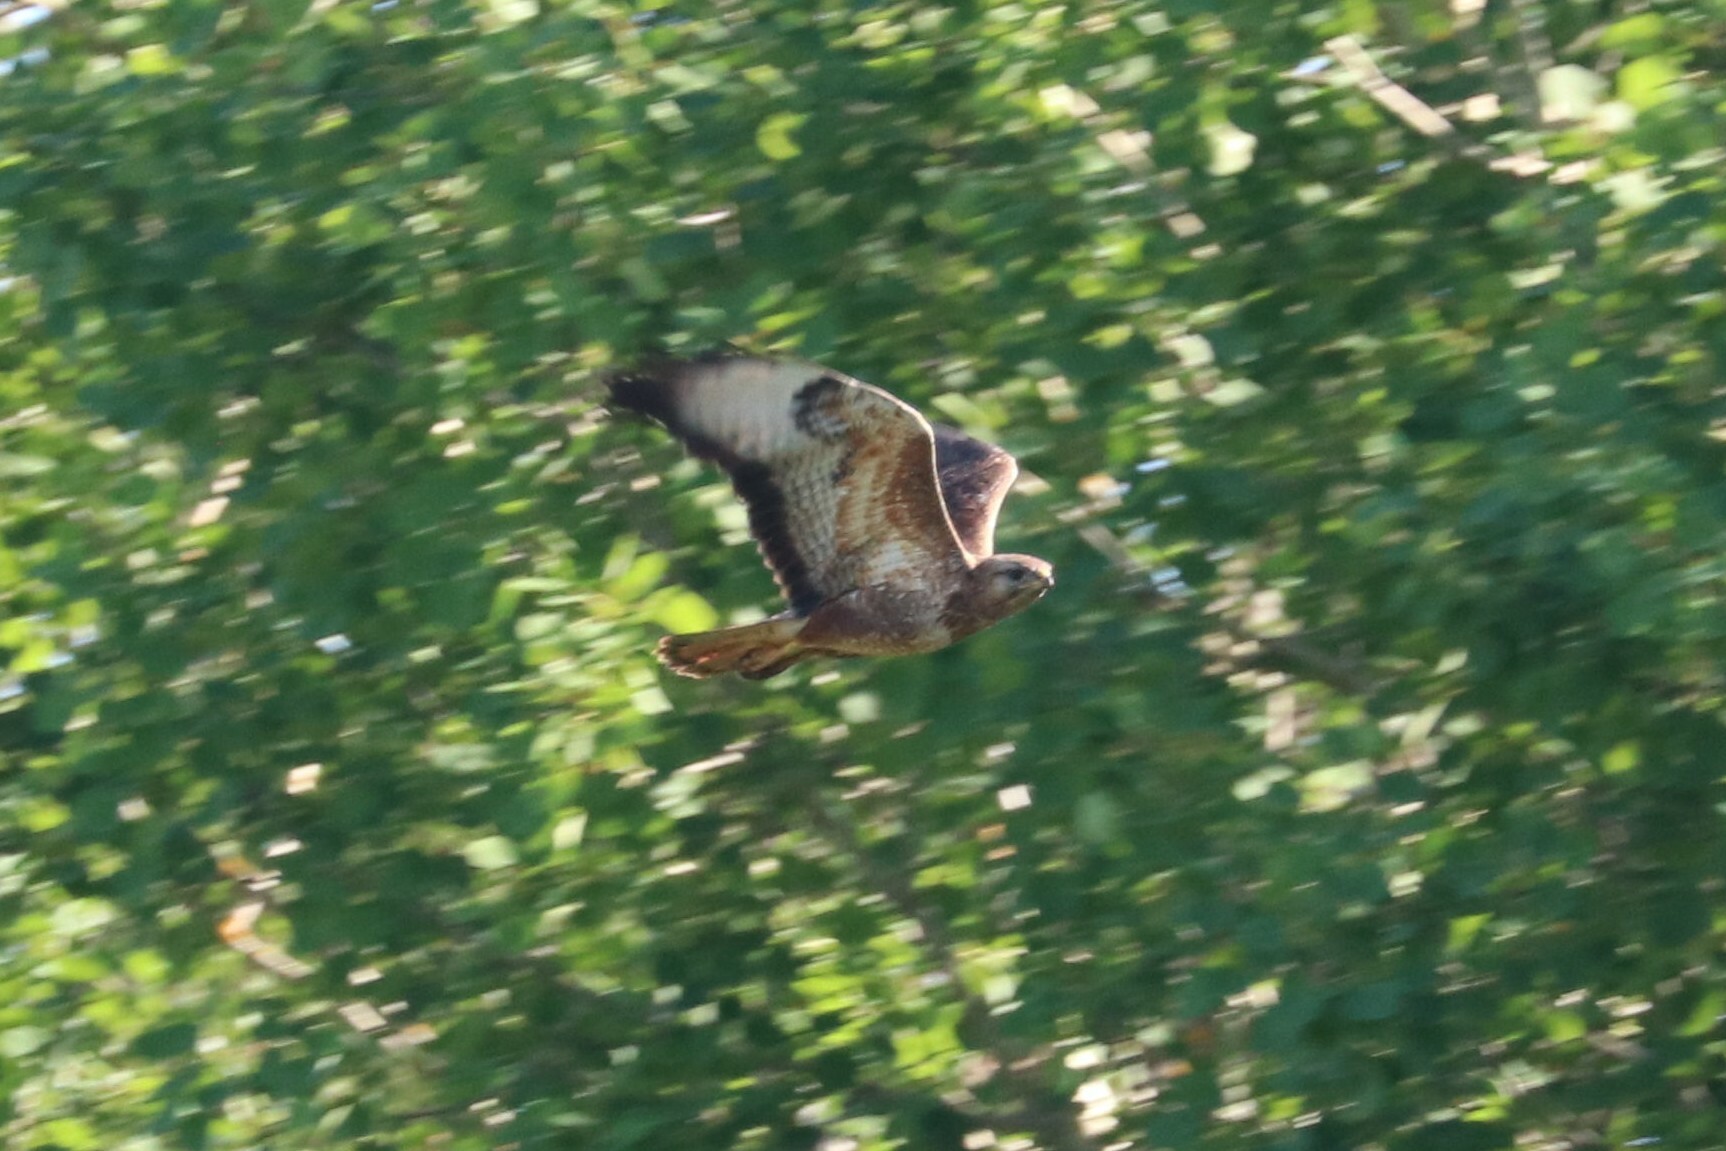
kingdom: Animalia
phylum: Chordata
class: Aves
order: Accipitriformes
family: Accipitridae
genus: Buteo
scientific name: Buteo buteo
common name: Common buzzard
